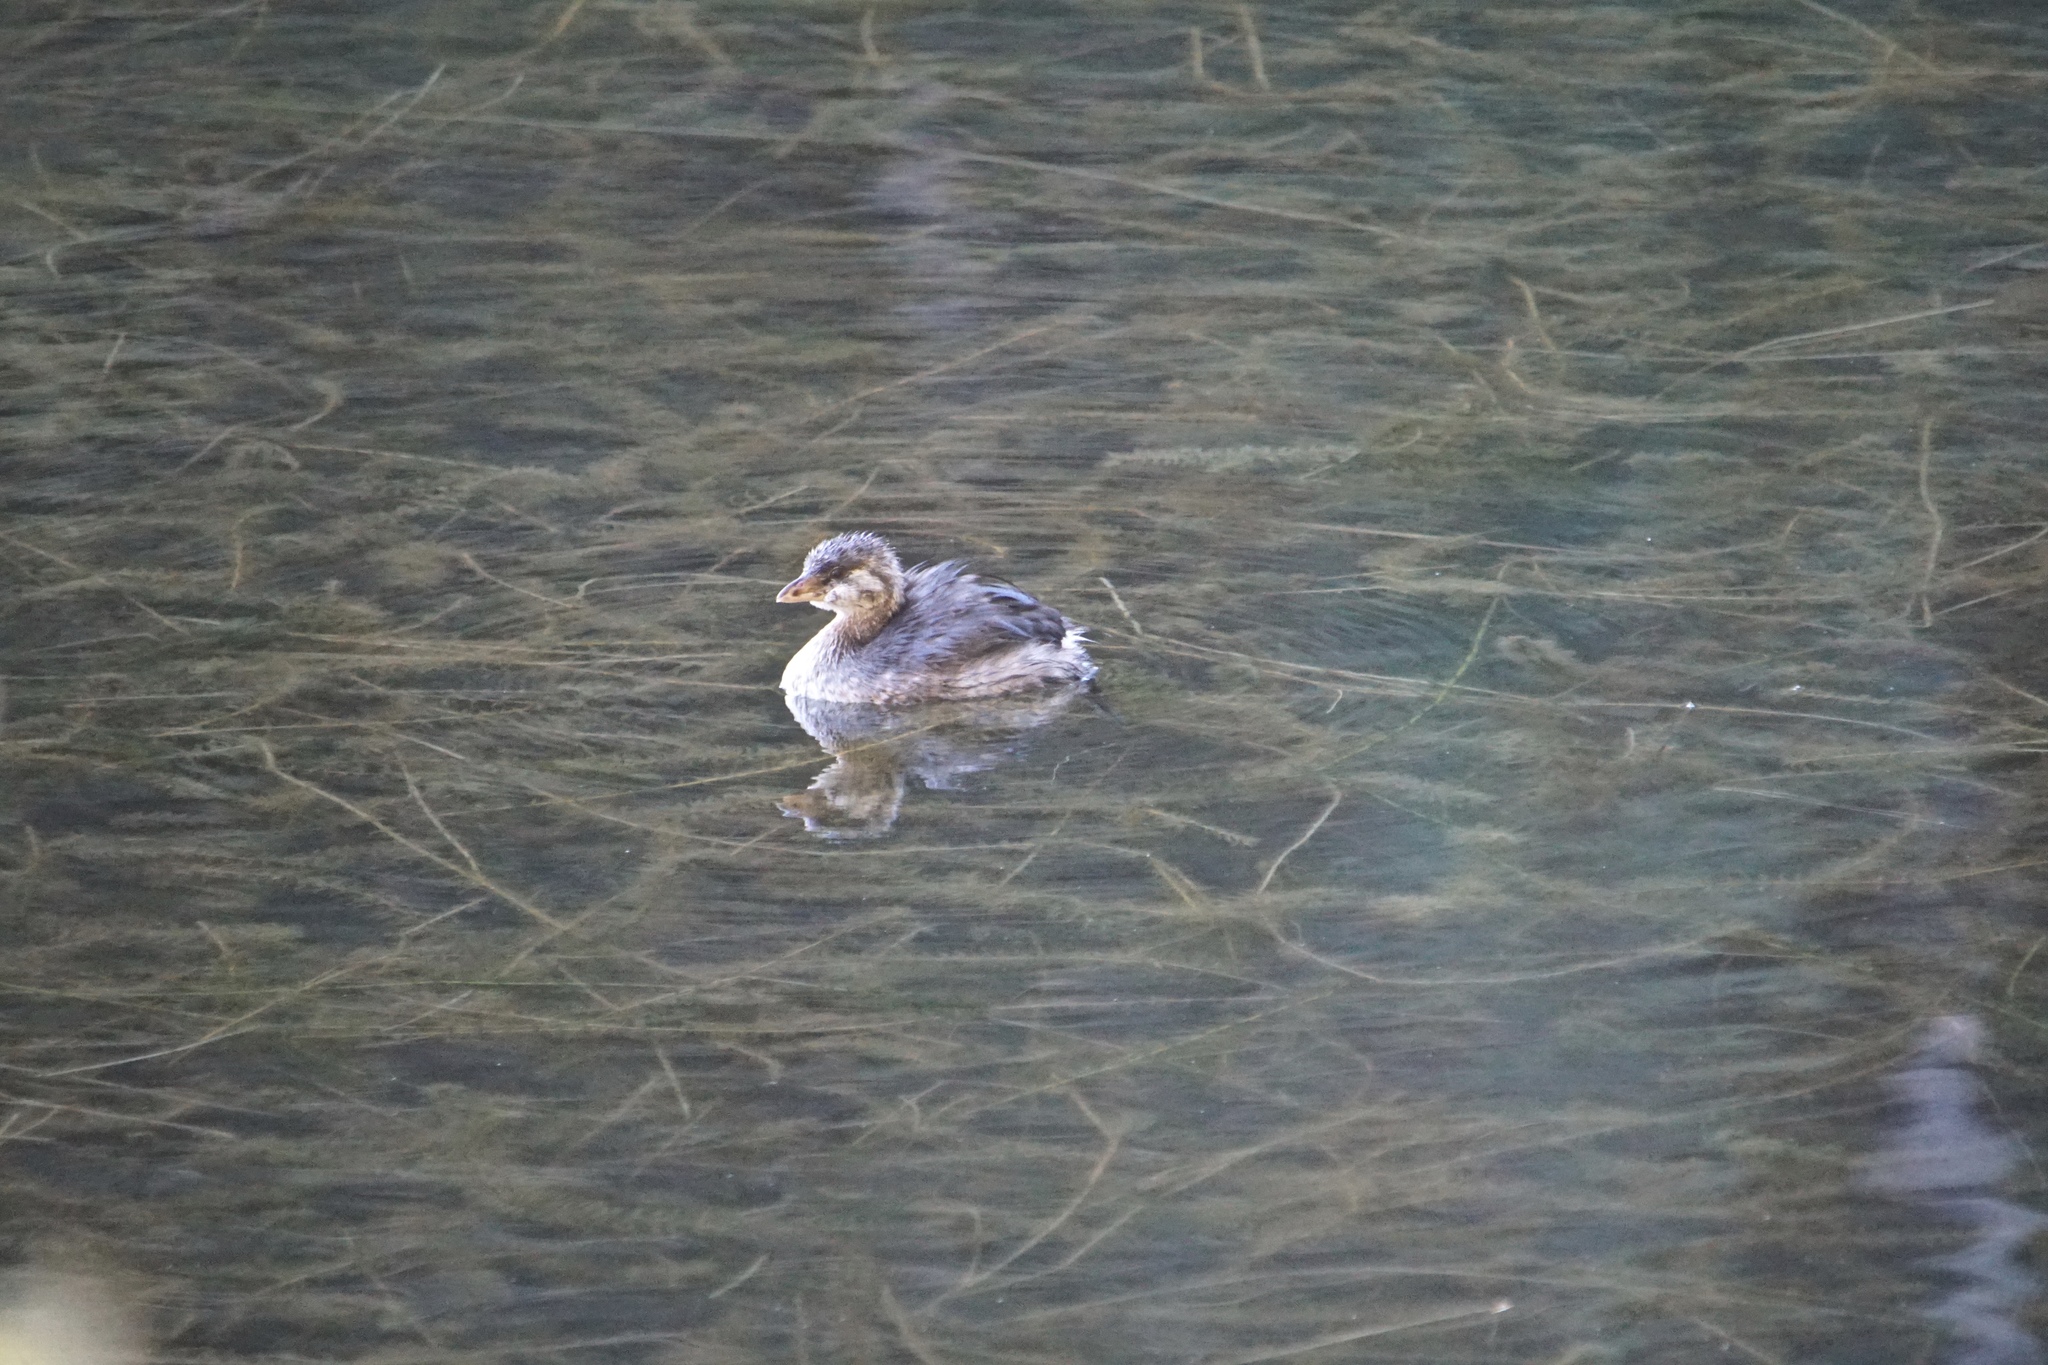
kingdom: Animalia
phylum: Chordata
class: Aves
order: Podicipediformes
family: Podicipedidae
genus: Podilymbus
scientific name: Podilymbus podiceps
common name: Pied-billed grebe
